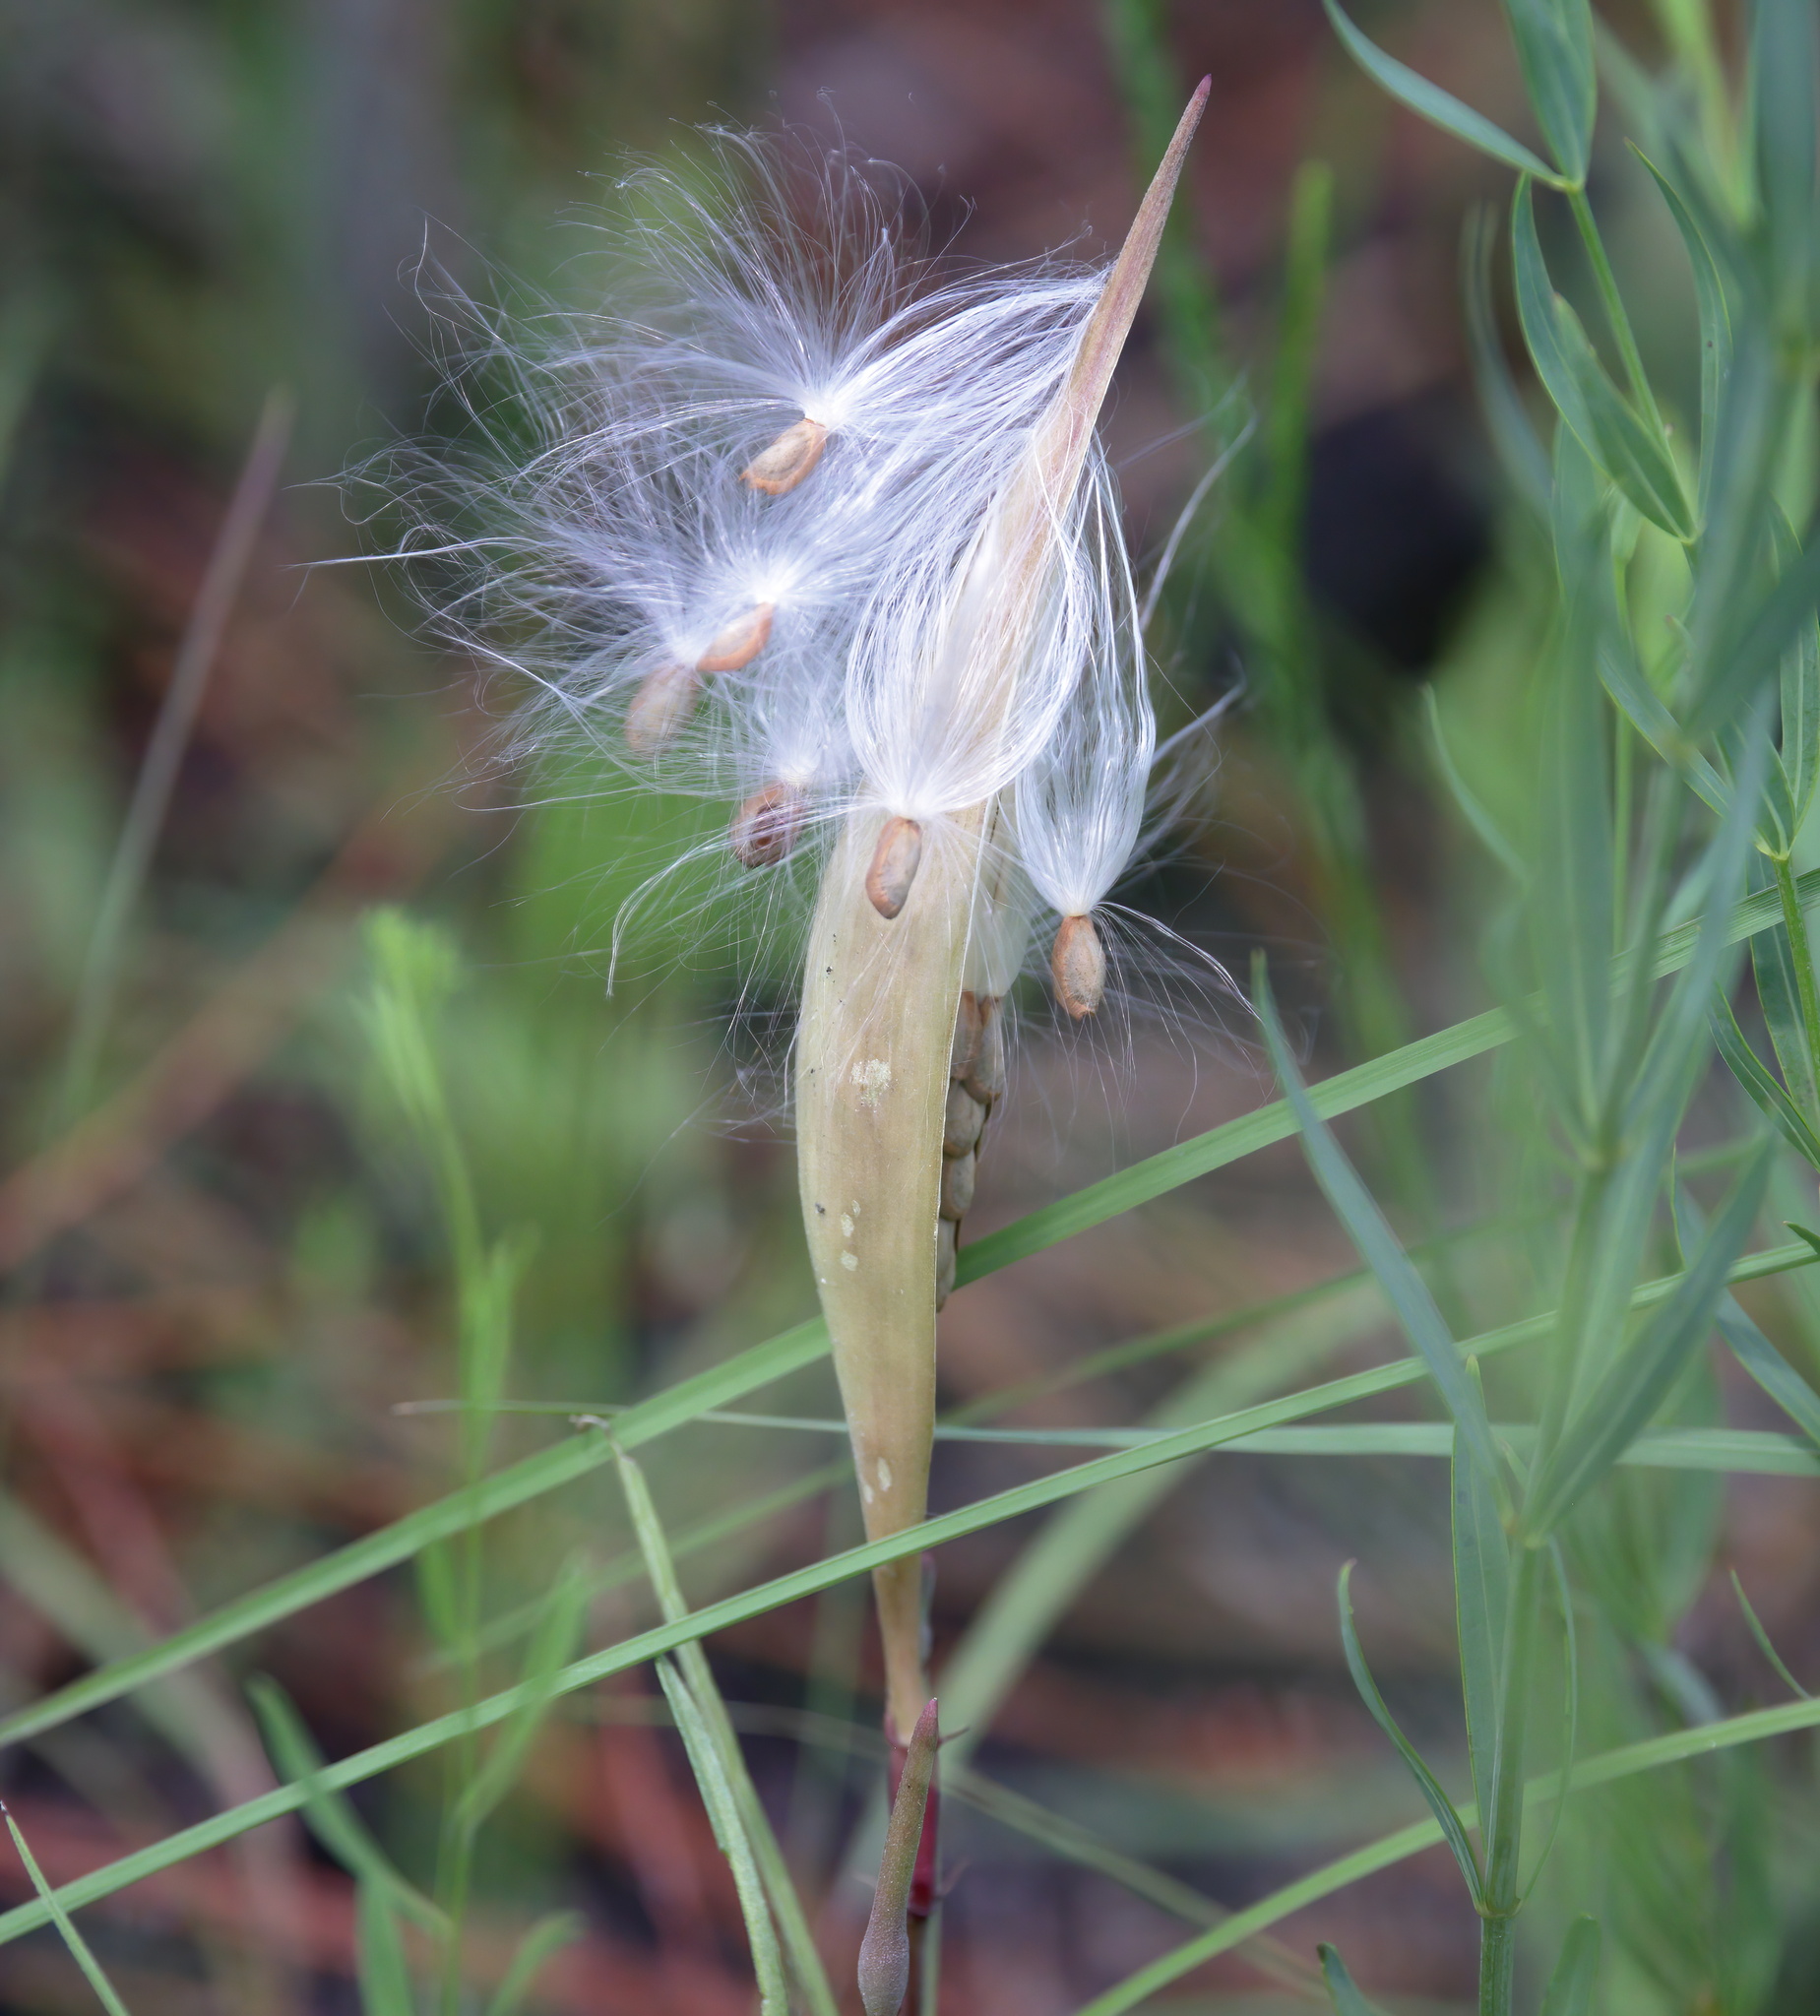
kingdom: Plantae
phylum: Tracheophyta
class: Magnoliopsida
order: Gentianales
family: Apocynaceae
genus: Asclepias
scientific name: Asclepias michauxii
